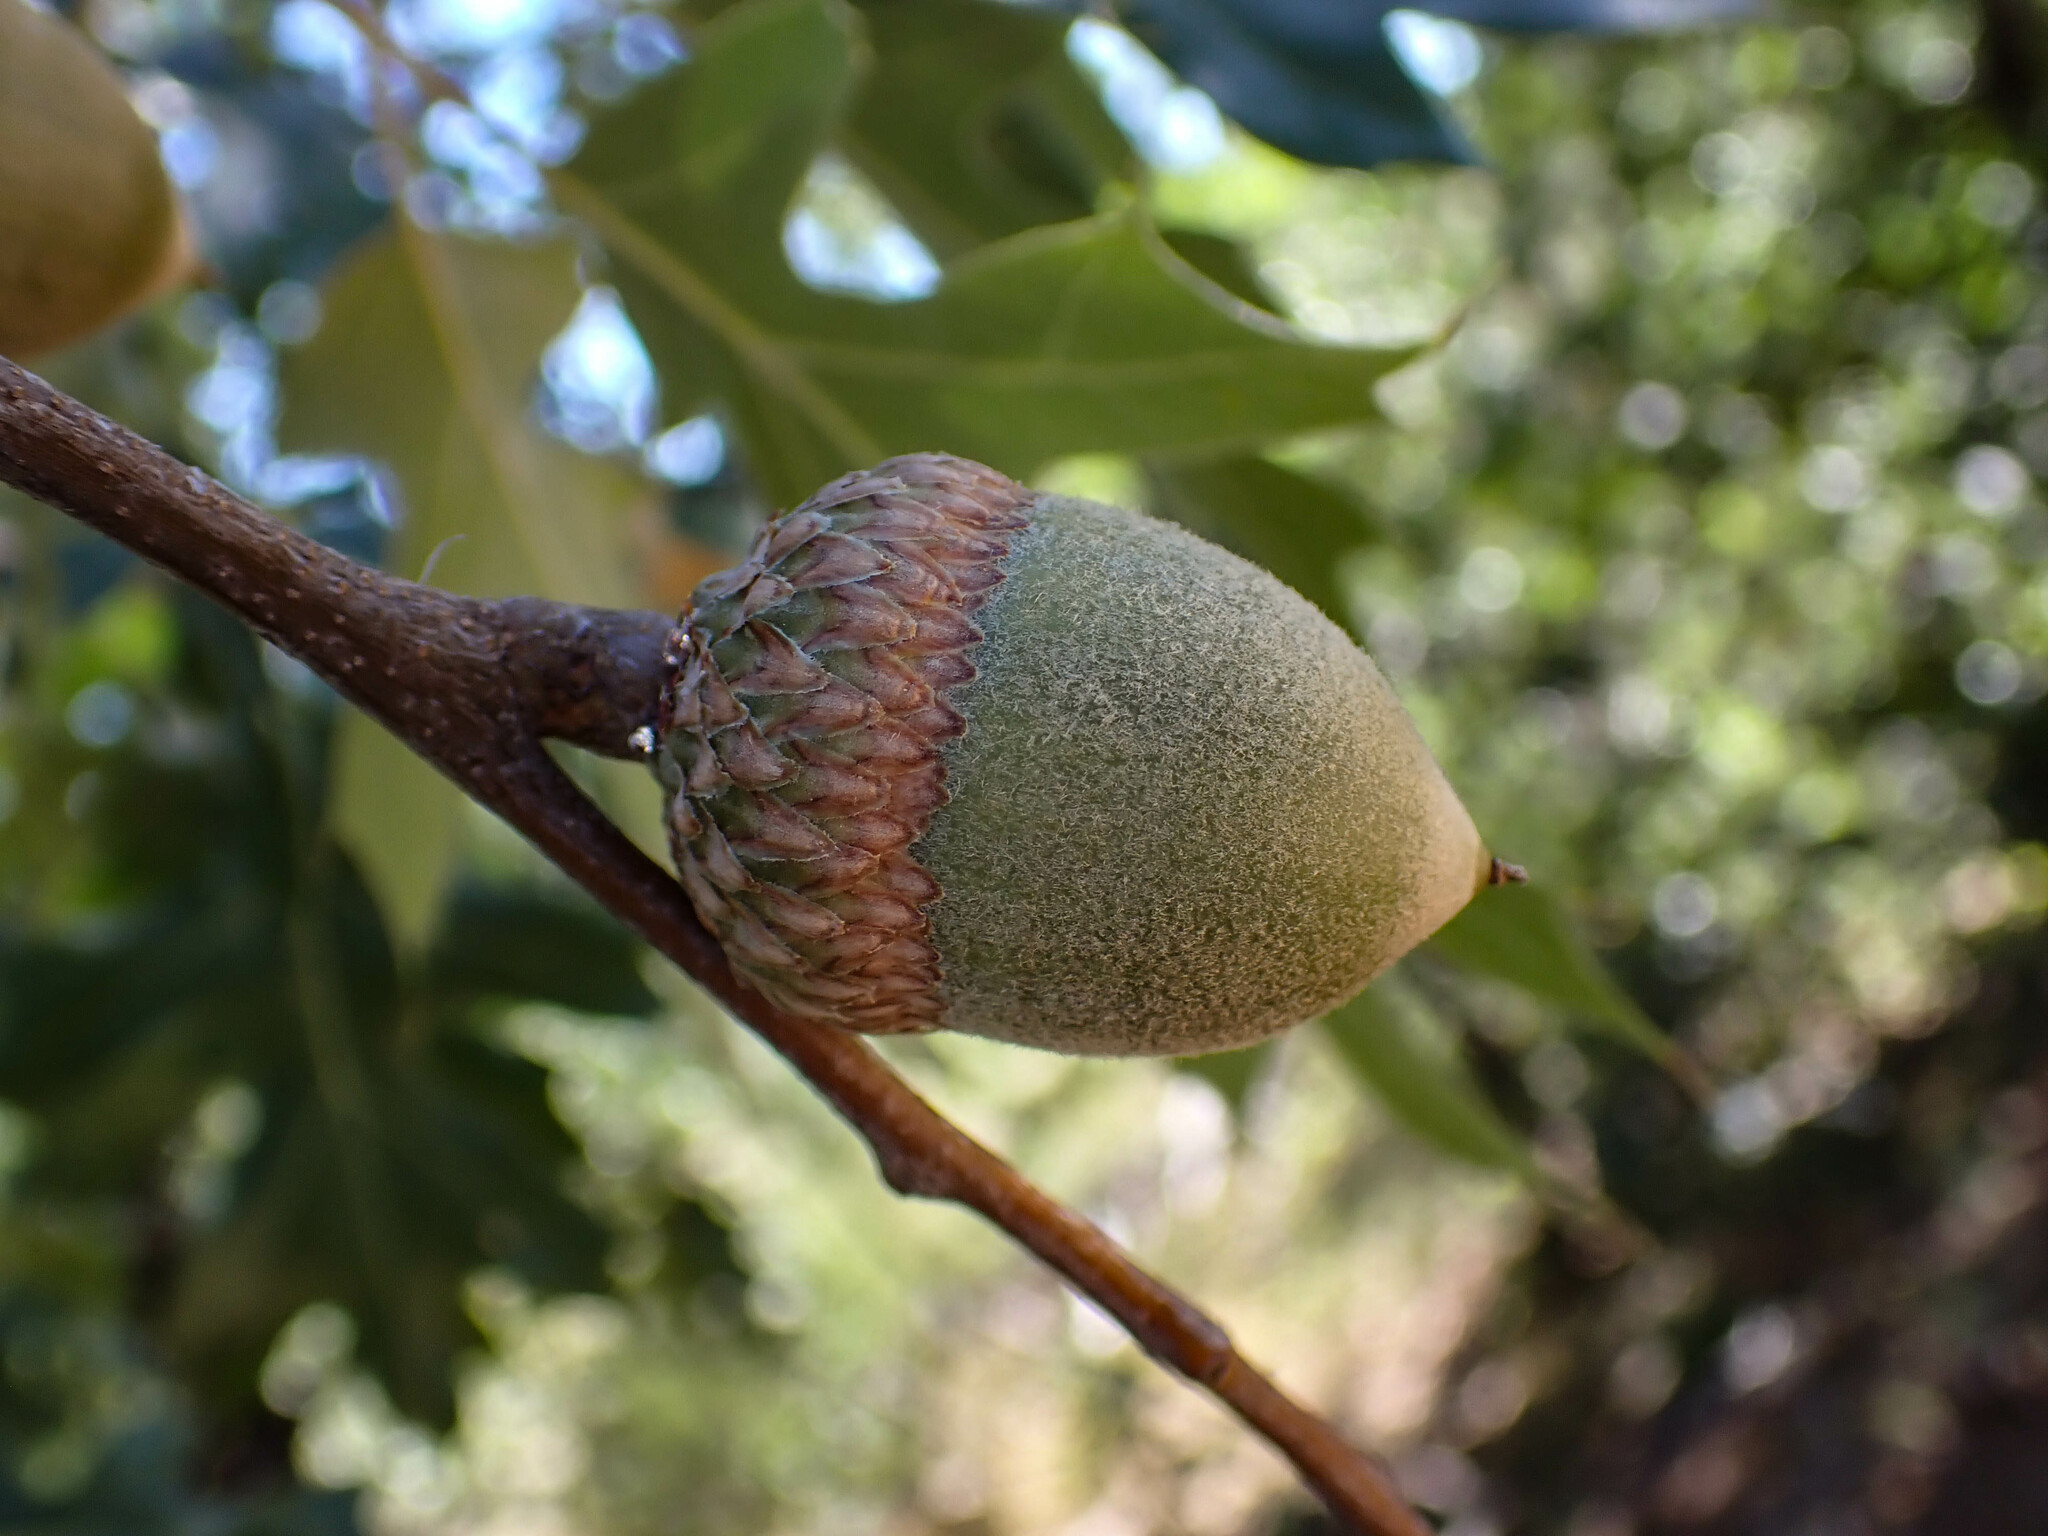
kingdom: Plantae
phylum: Tracheophyta
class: Magnoliopsida
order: Fagales
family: Fagaceae
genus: Quercus
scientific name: Quercus kelloggii
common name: California black oak
